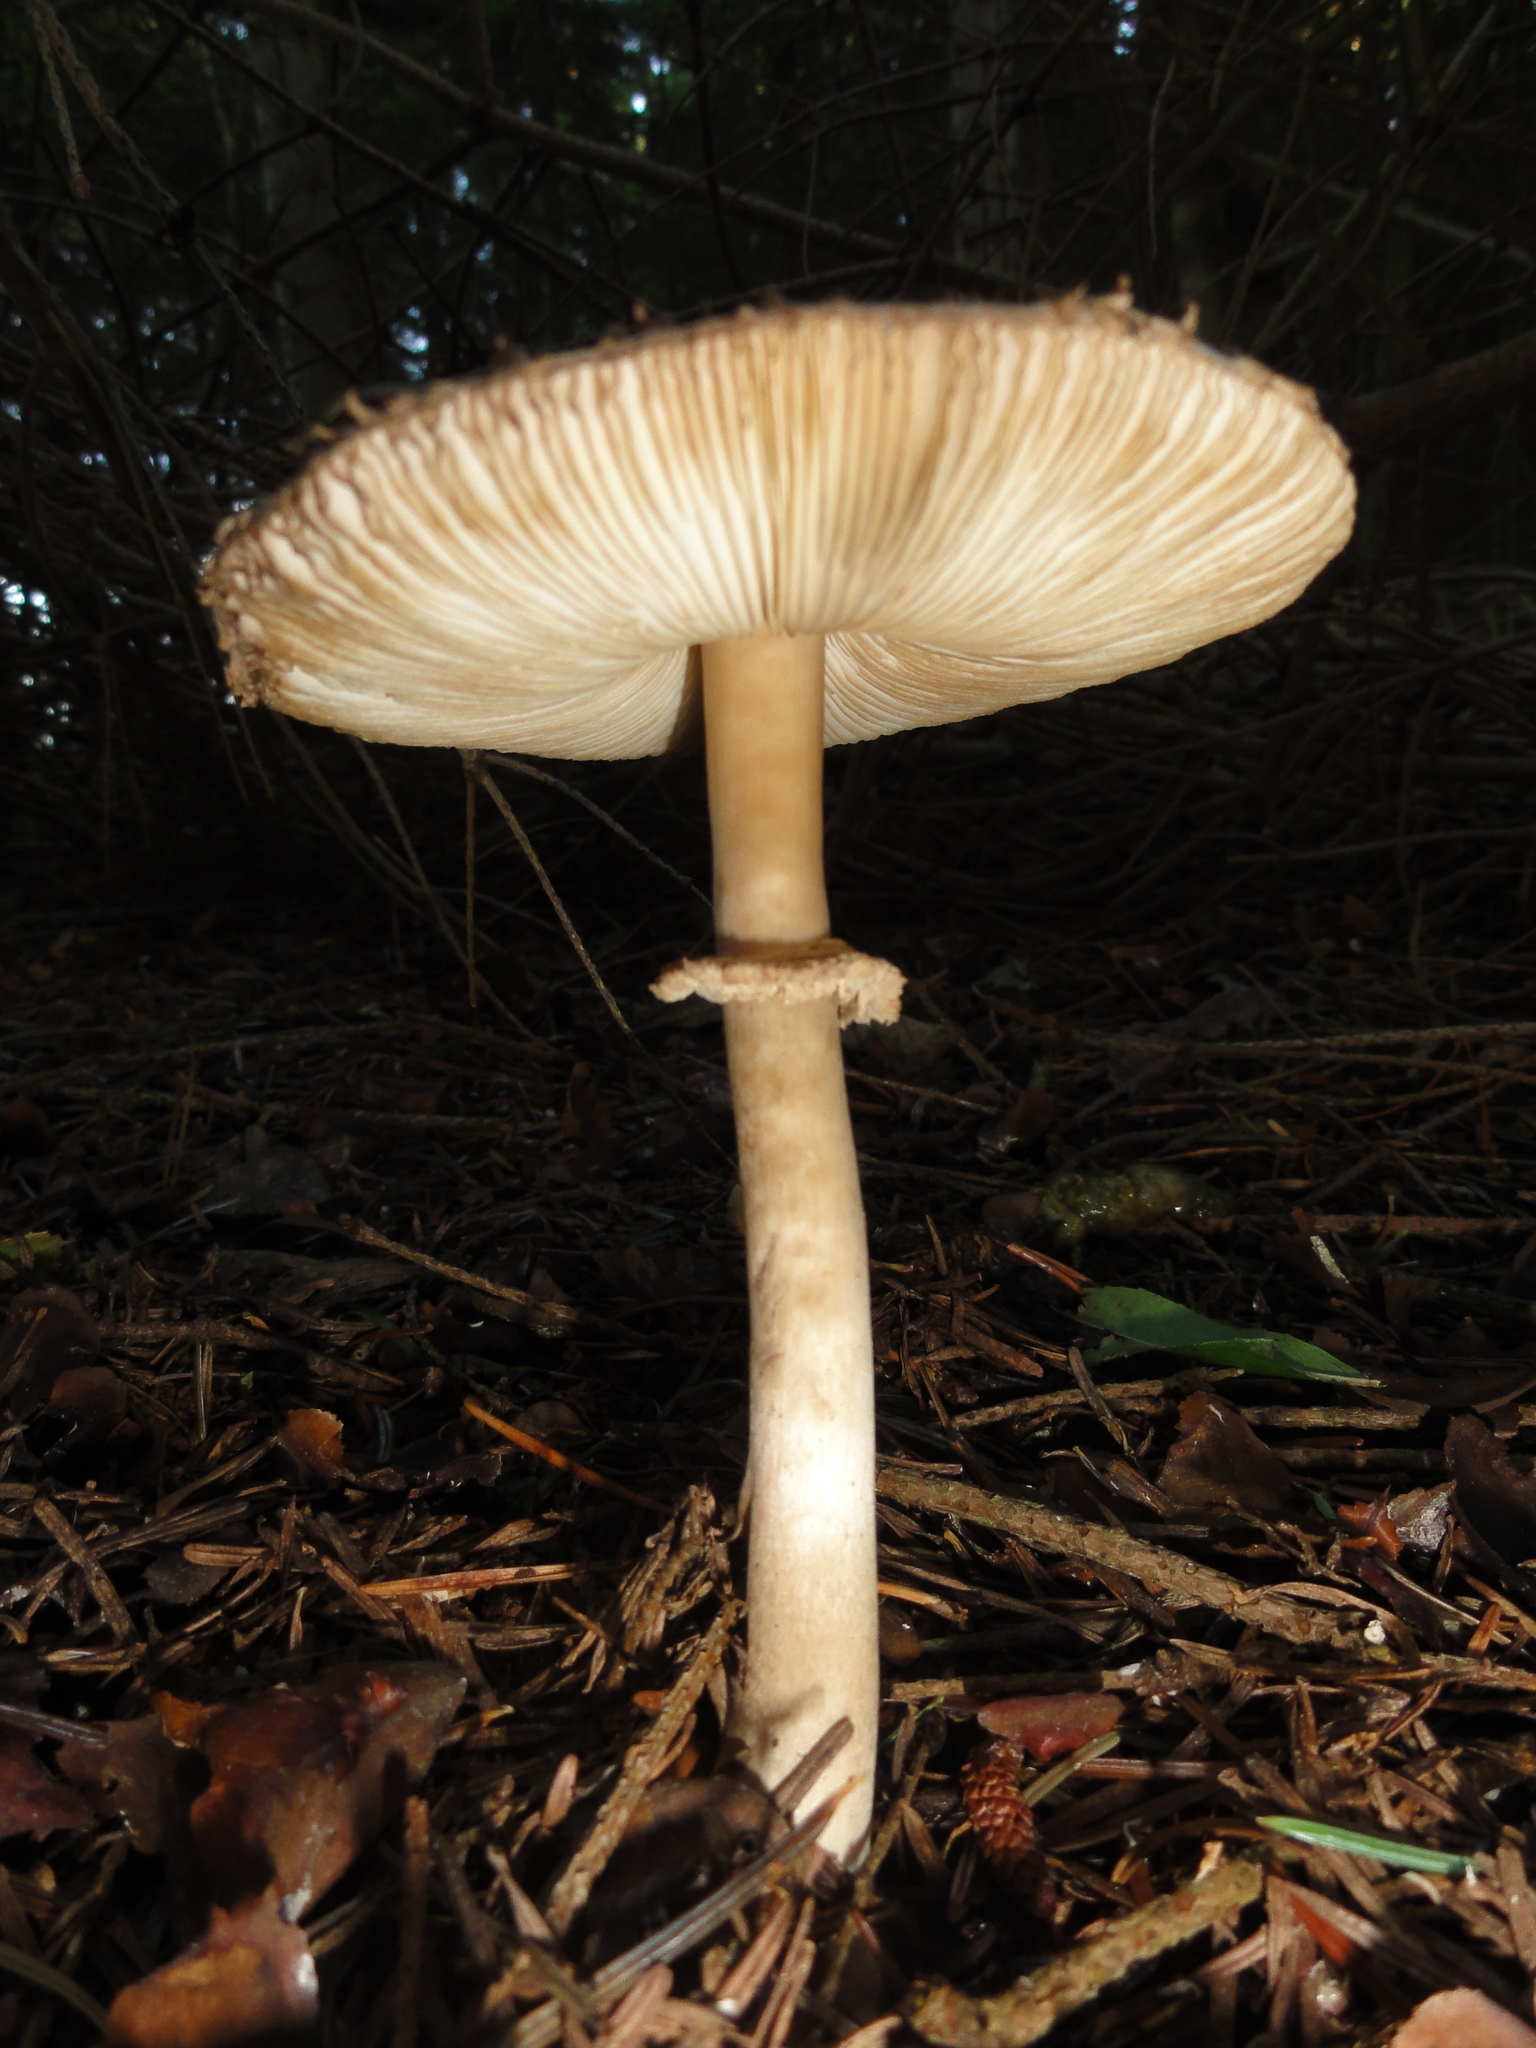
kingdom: Fungi
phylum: Basidiomycota
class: Agaricomycetes
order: Agaricales
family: Agaricaceae
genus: Leucoagaricus
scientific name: Leucoagaricus nympharum
